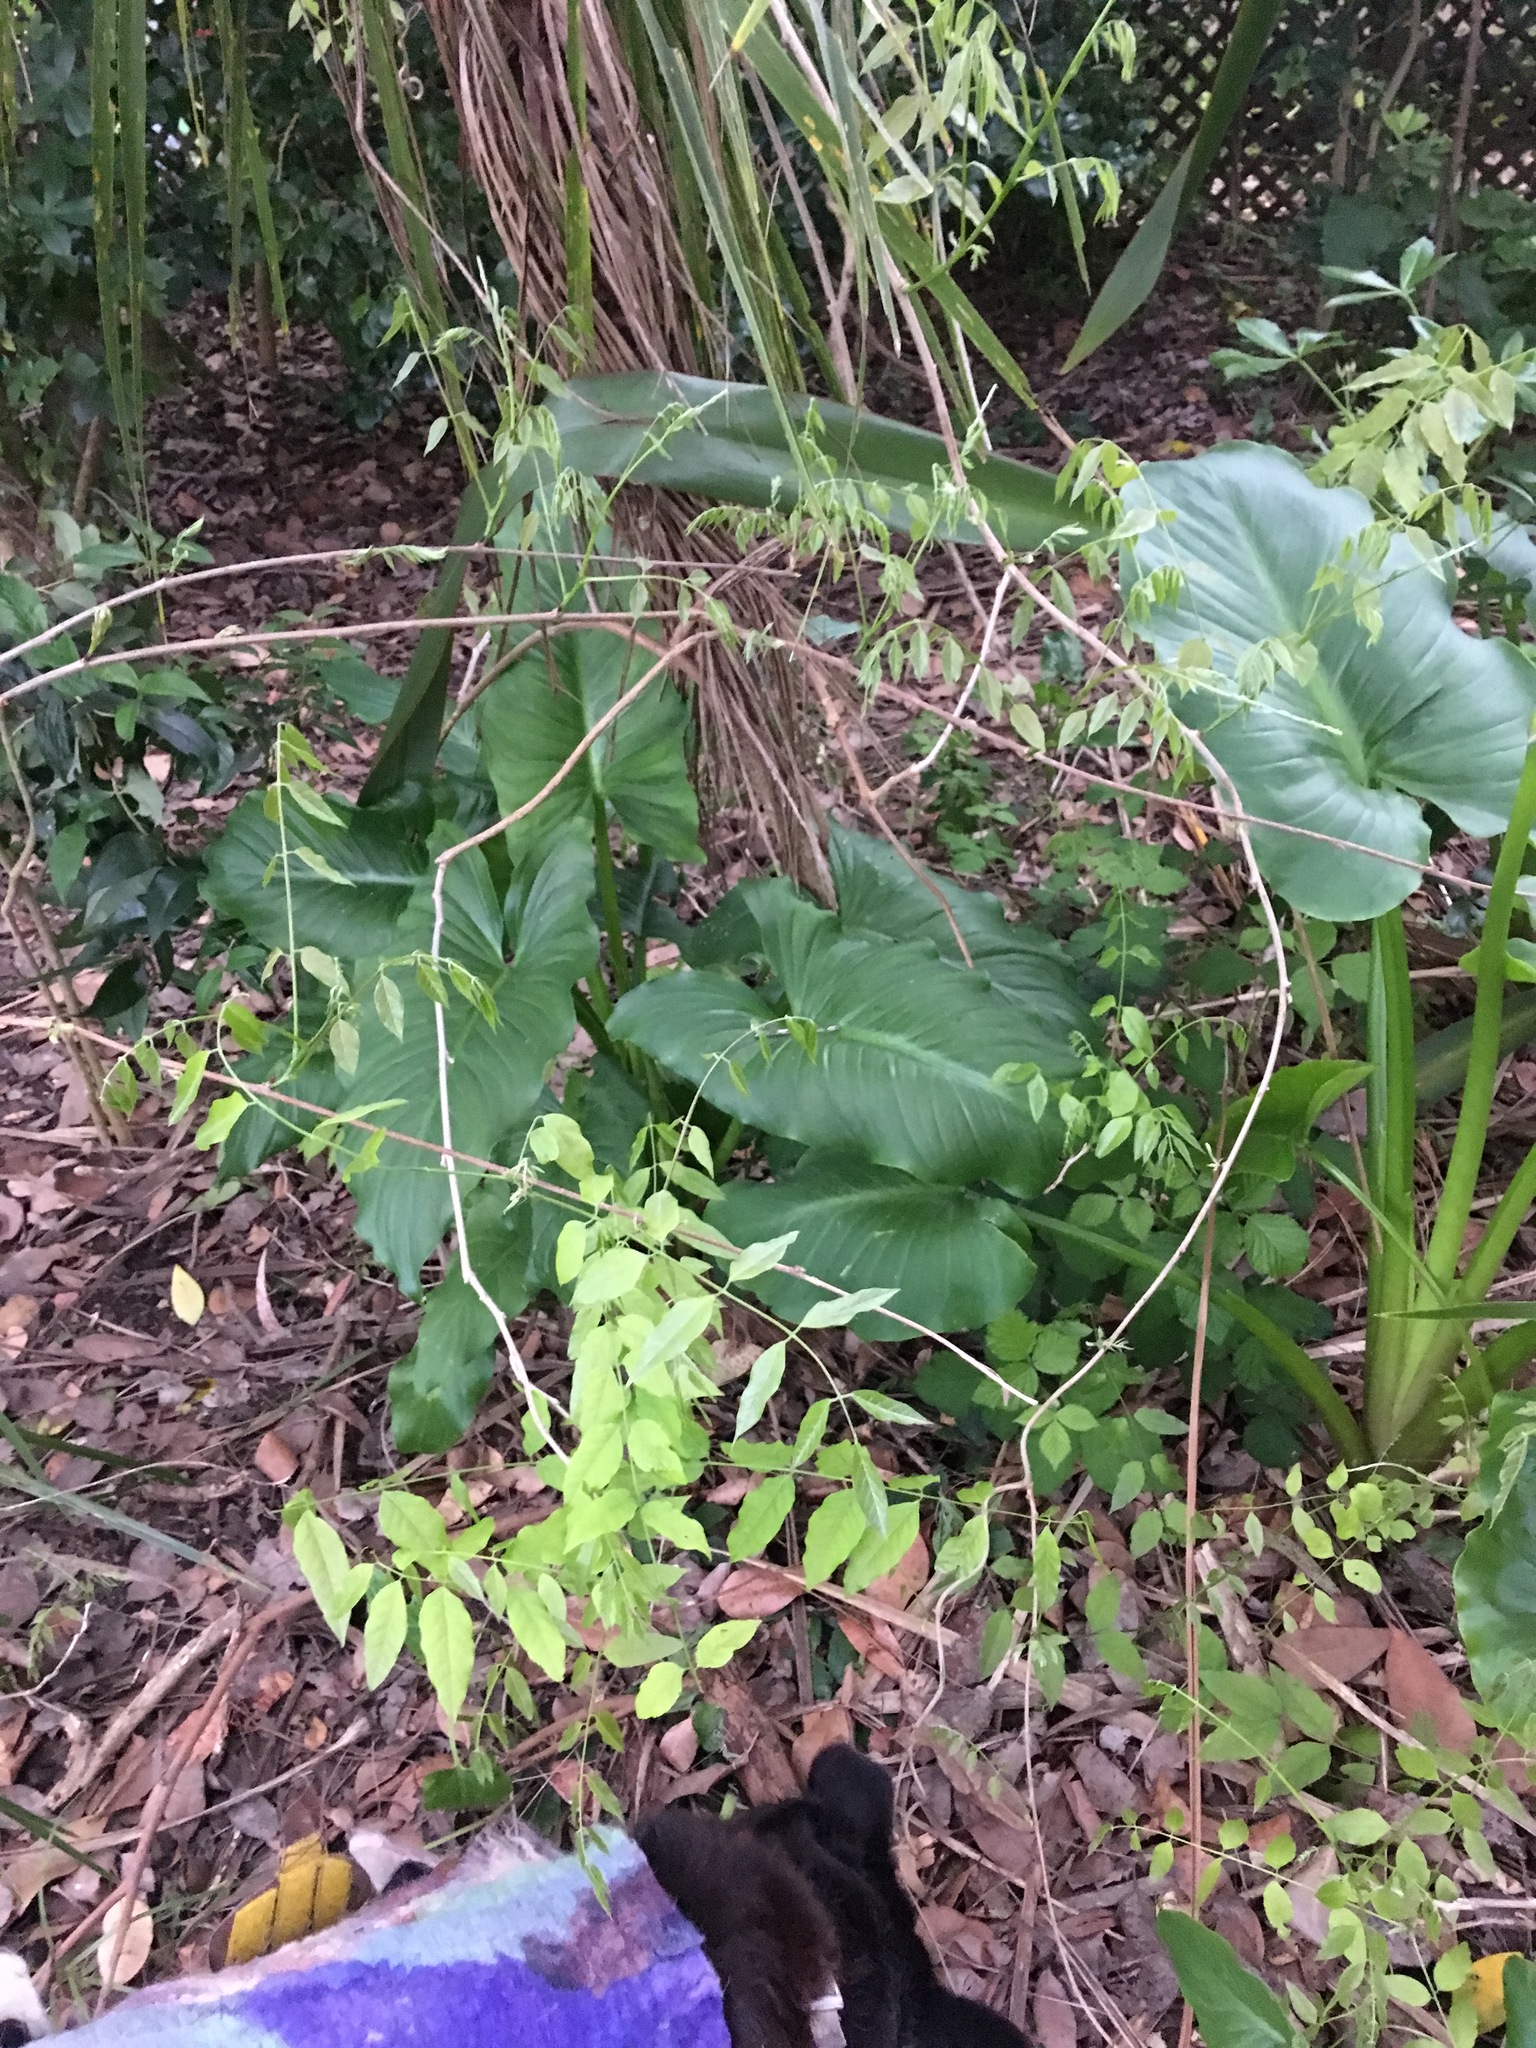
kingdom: Plantae
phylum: Tracheophyta
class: Liliopsida
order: Alismatales
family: Araceae
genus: Zantedeschia
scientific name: Zantedeschia aethiopica
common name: Altar-lily
